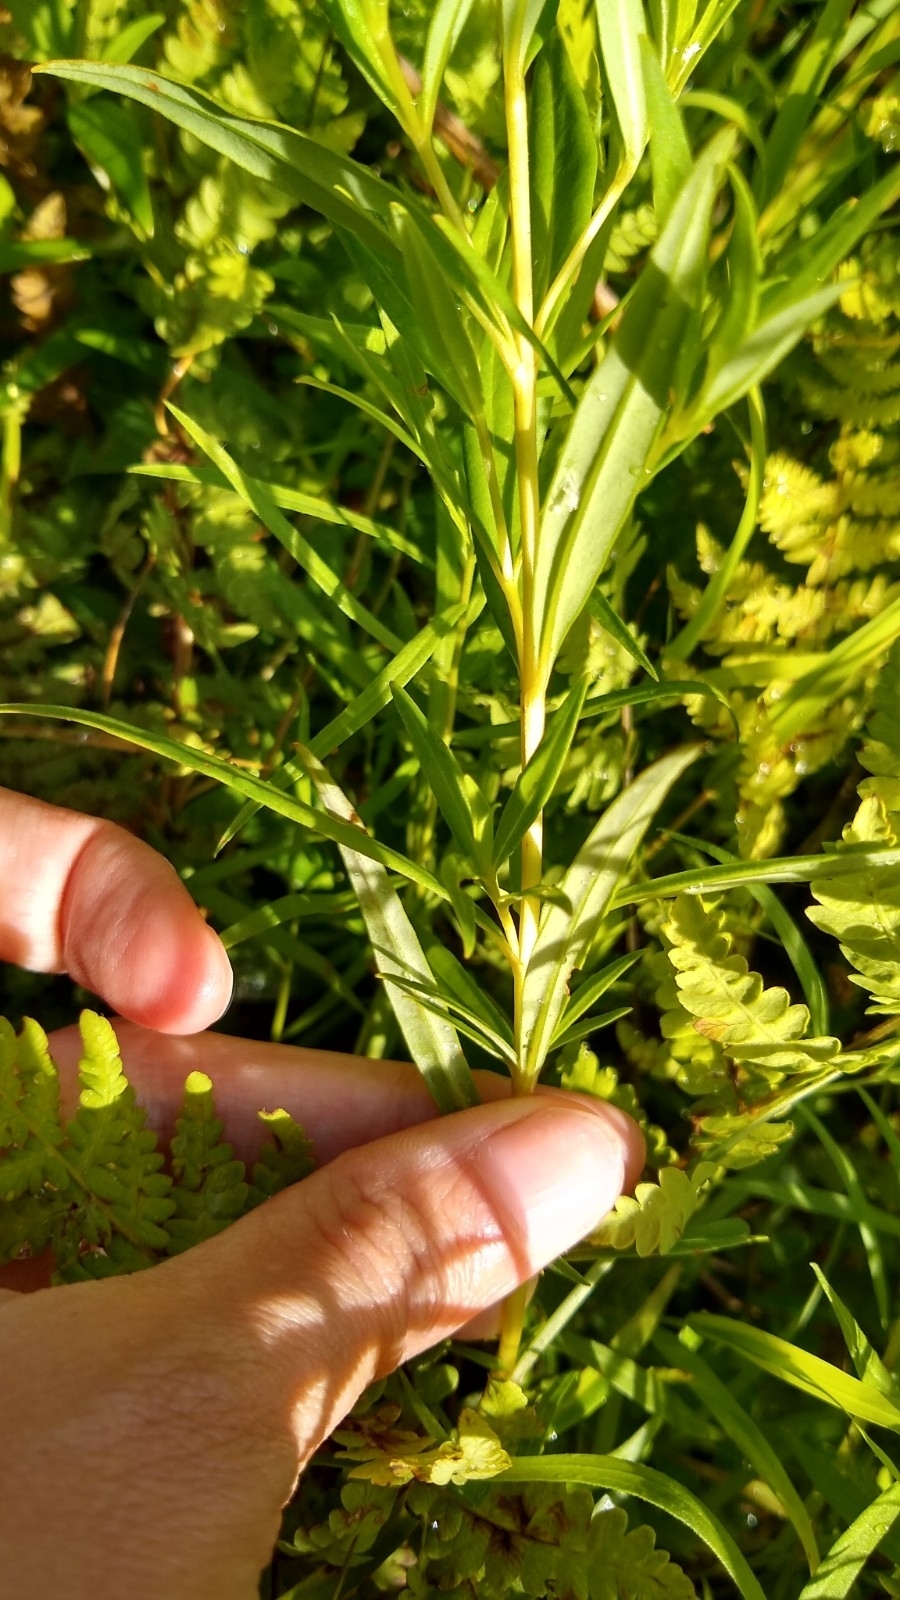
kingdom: Plantae
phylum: Tracheophyta
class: Magnoliopsida
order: Ericales
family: Primulaceae
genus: Lysimachia
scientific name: Lysimachia terrestris
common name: Lake loosestrife
